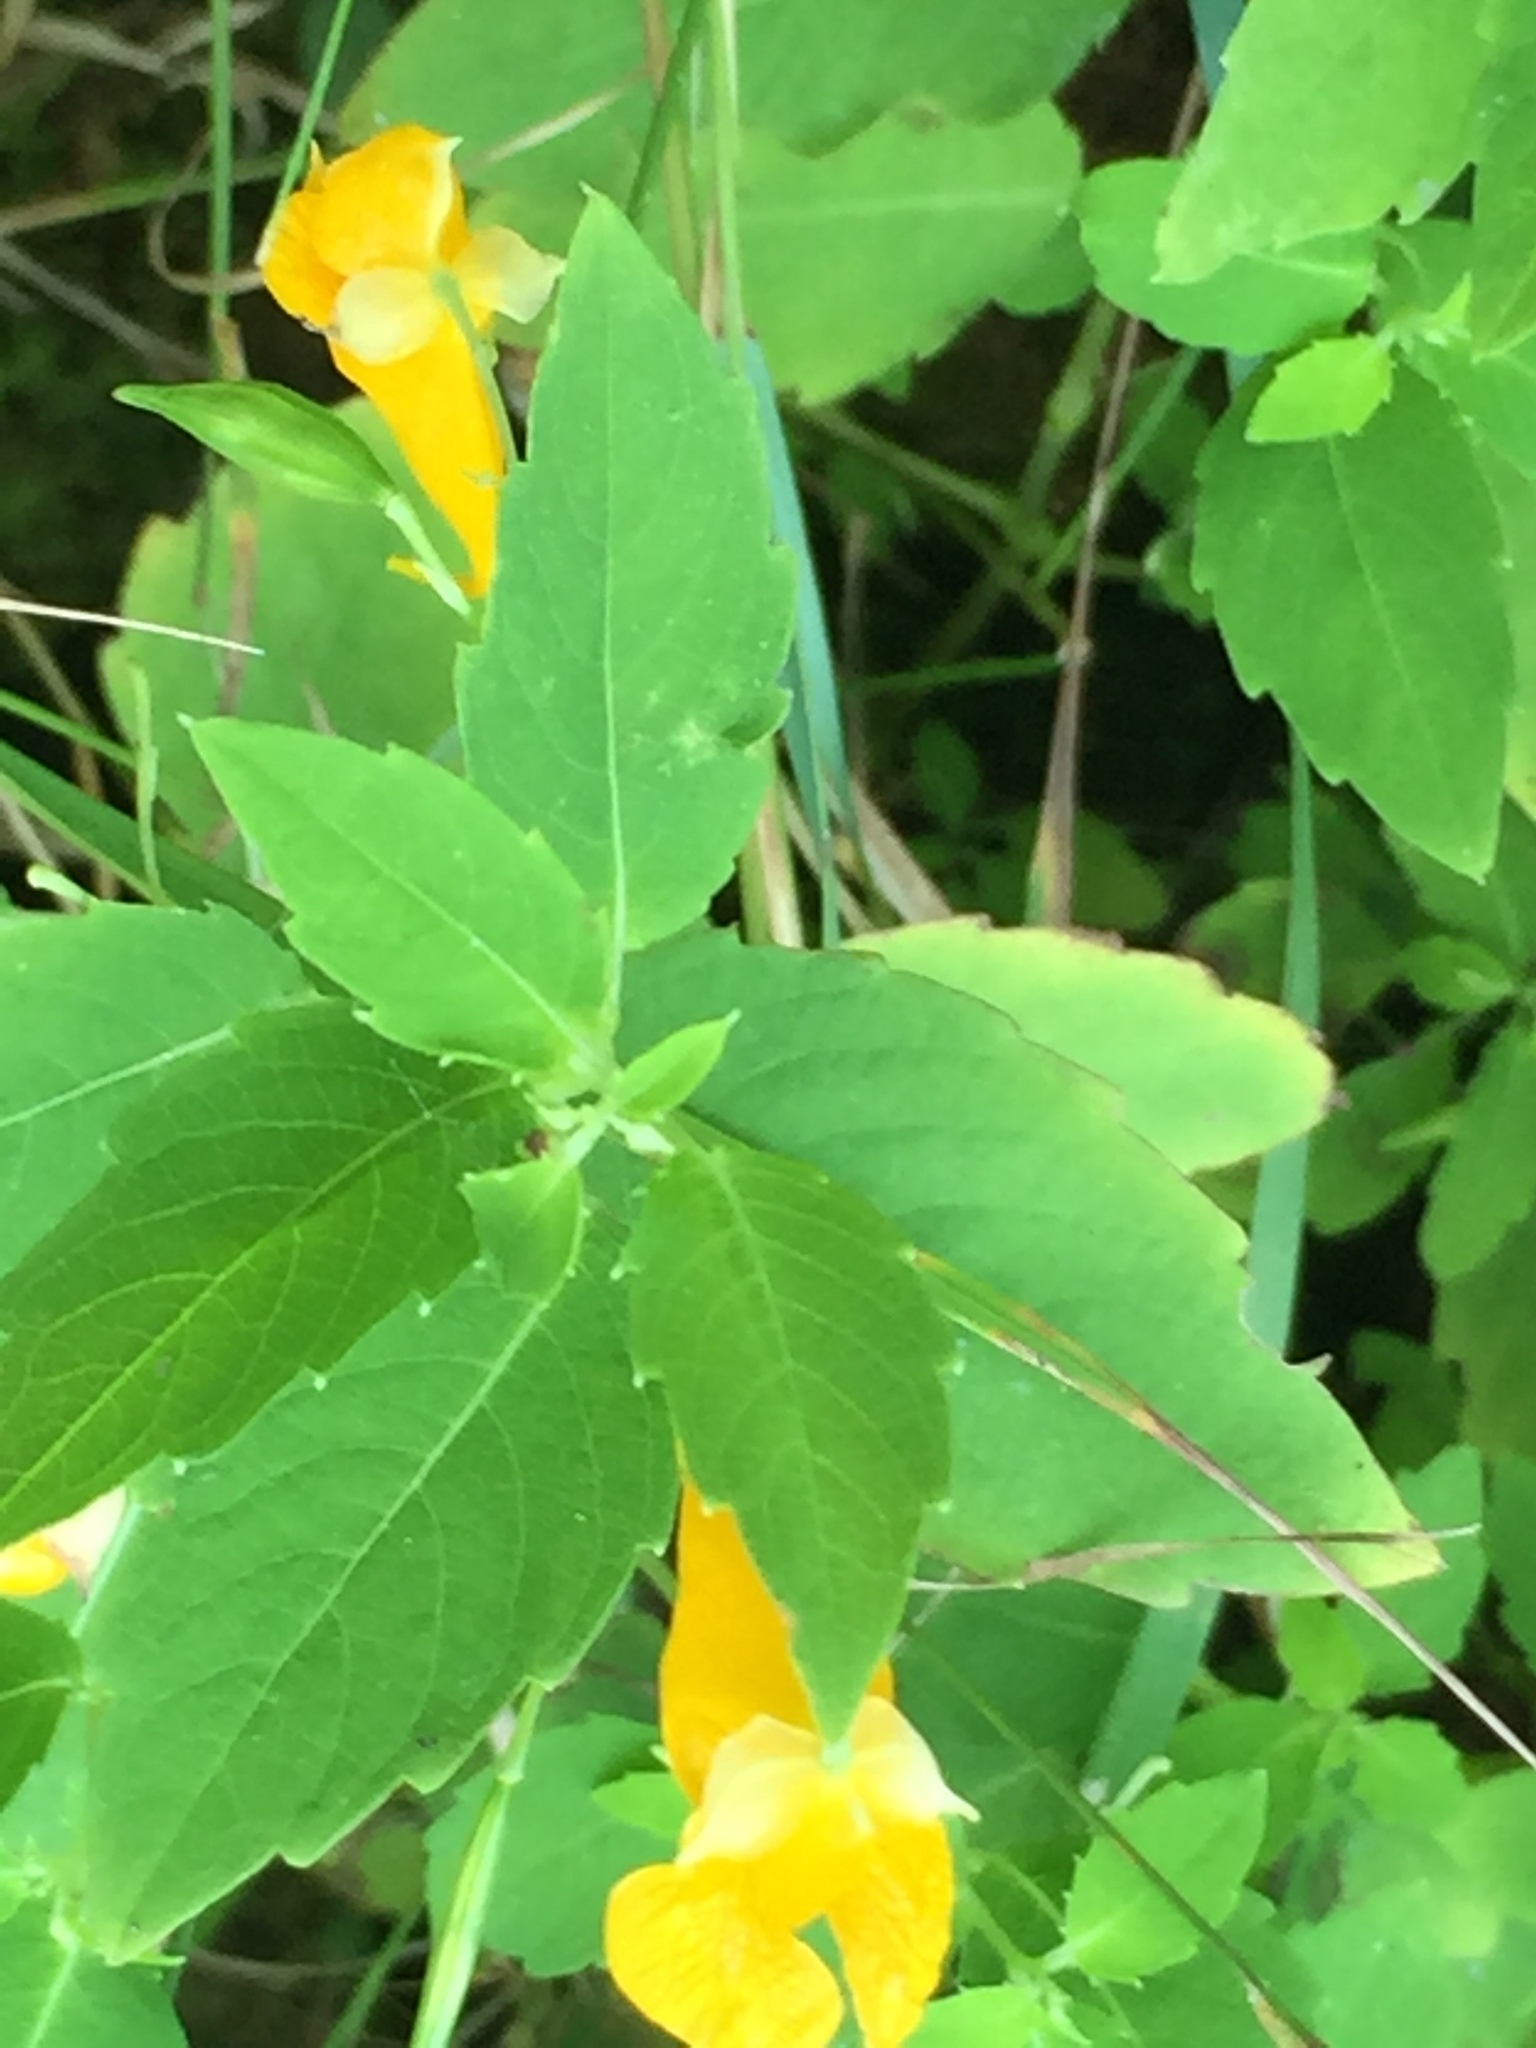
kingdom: Plantae
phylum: Tracheophyta
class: Magnoliopsida
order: Ericales
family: Balsaminaceae
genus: Impatiens
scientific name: Impatiens capensis
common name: Orange balsam
